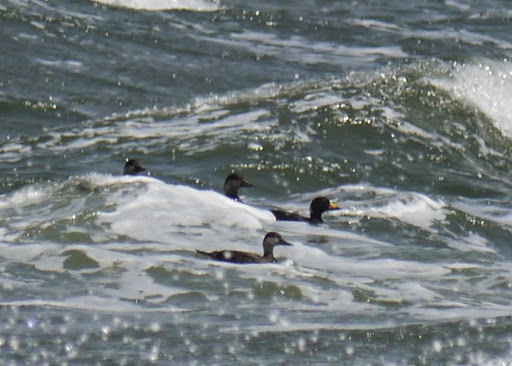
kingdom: Animalia
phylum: Chordata
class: Aves
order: Anseriformes
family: Anatidae
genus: Melanitta
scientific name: Melanitta americana
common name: Black scoter
